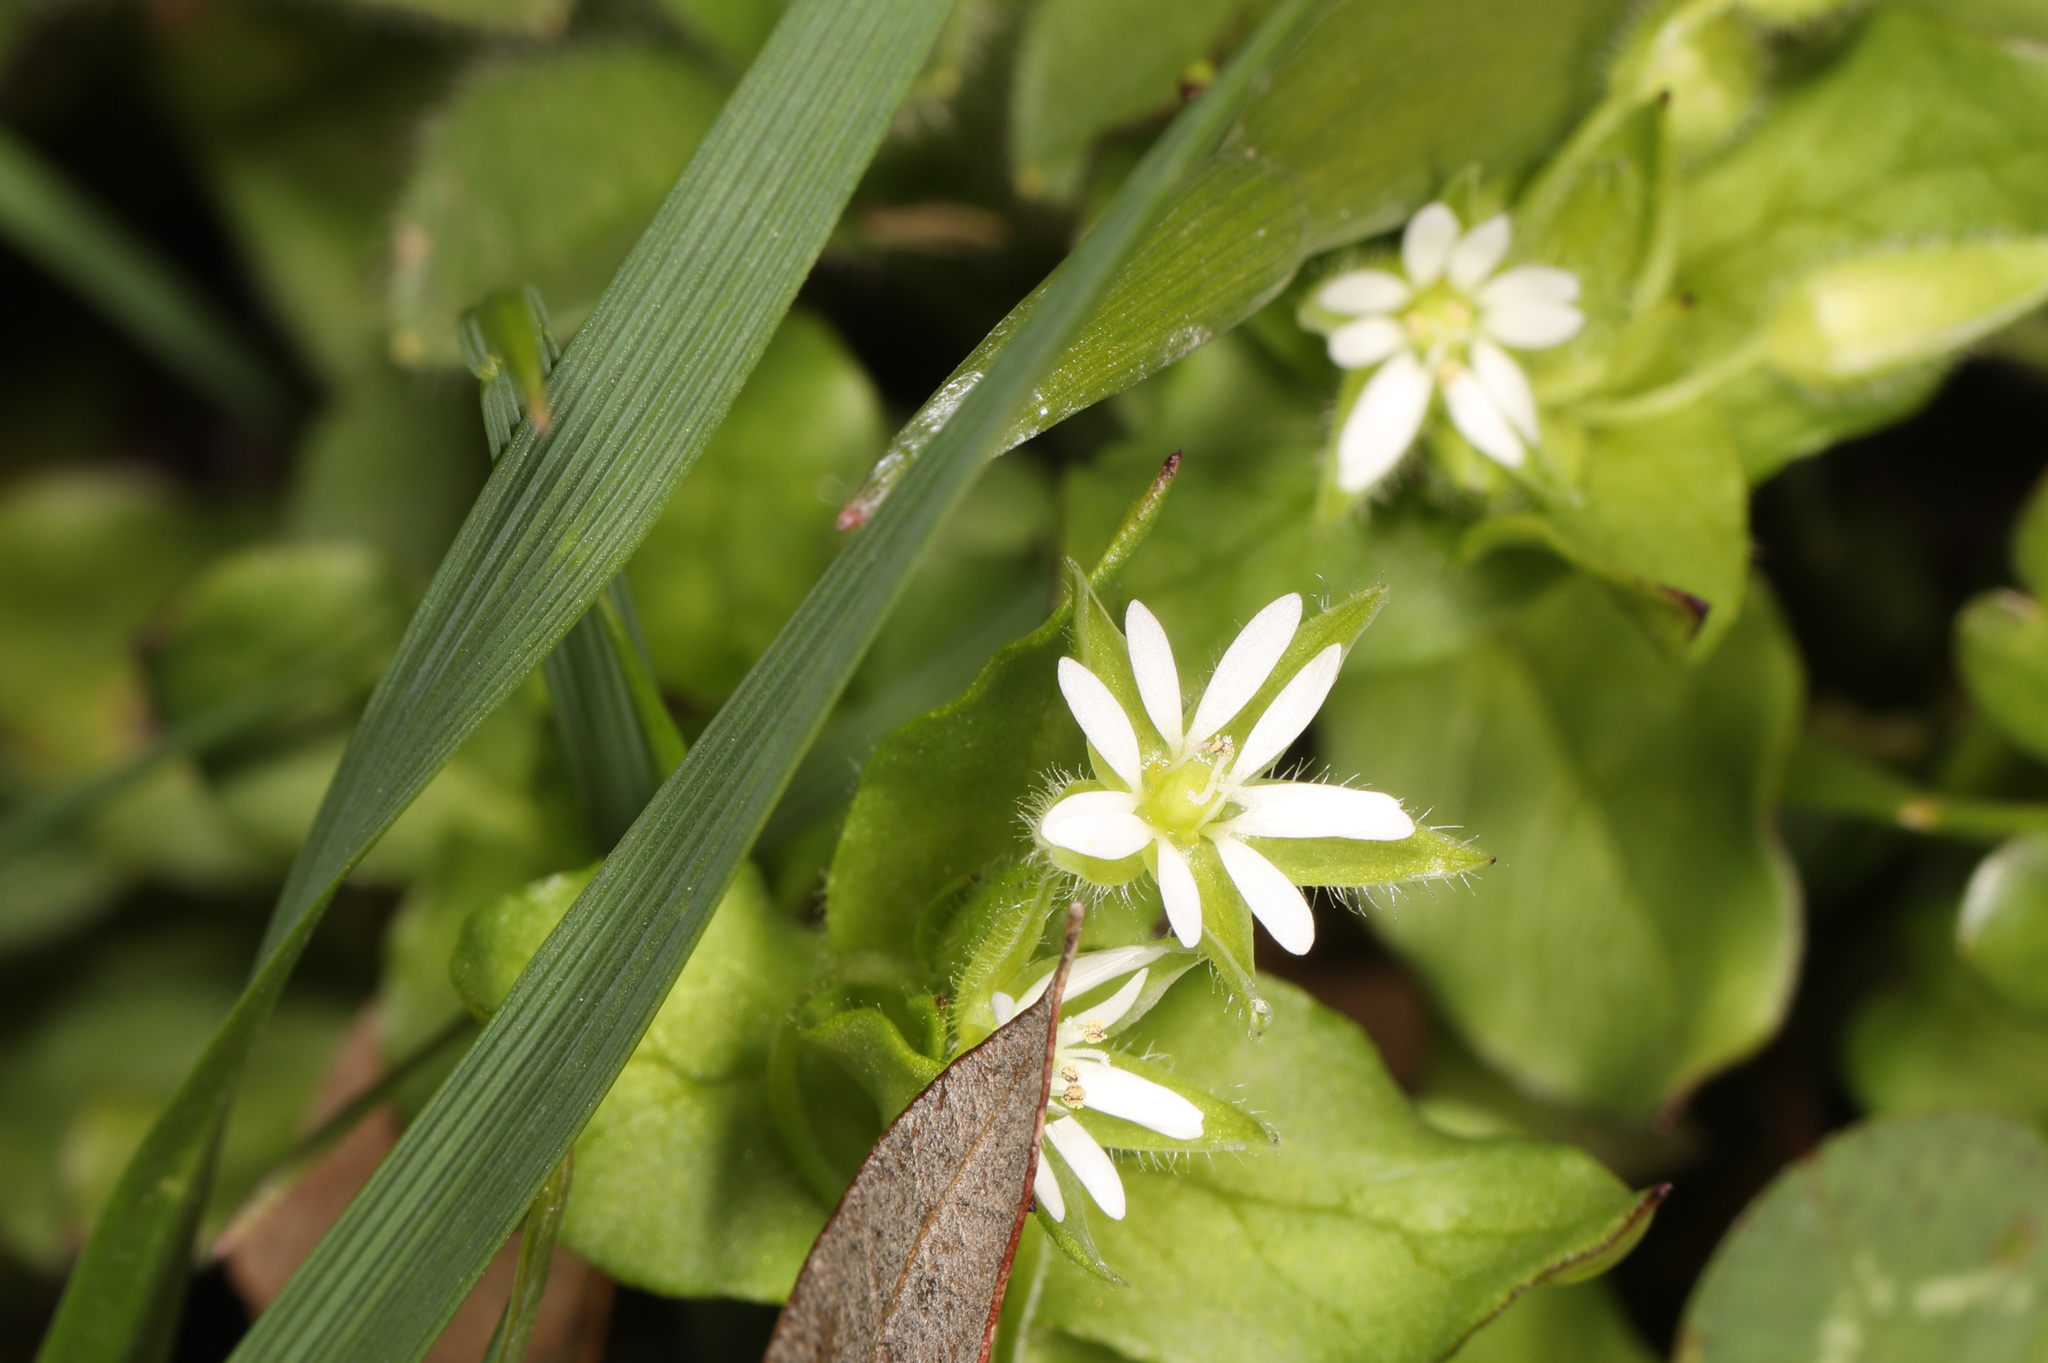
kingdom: Plantae
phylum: Tracheophyta
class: Magnoliopsida
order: Caryophyllales
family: Caryophyllaceae
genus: Stellaria
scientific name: Stellaria media
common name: Common chickweed
